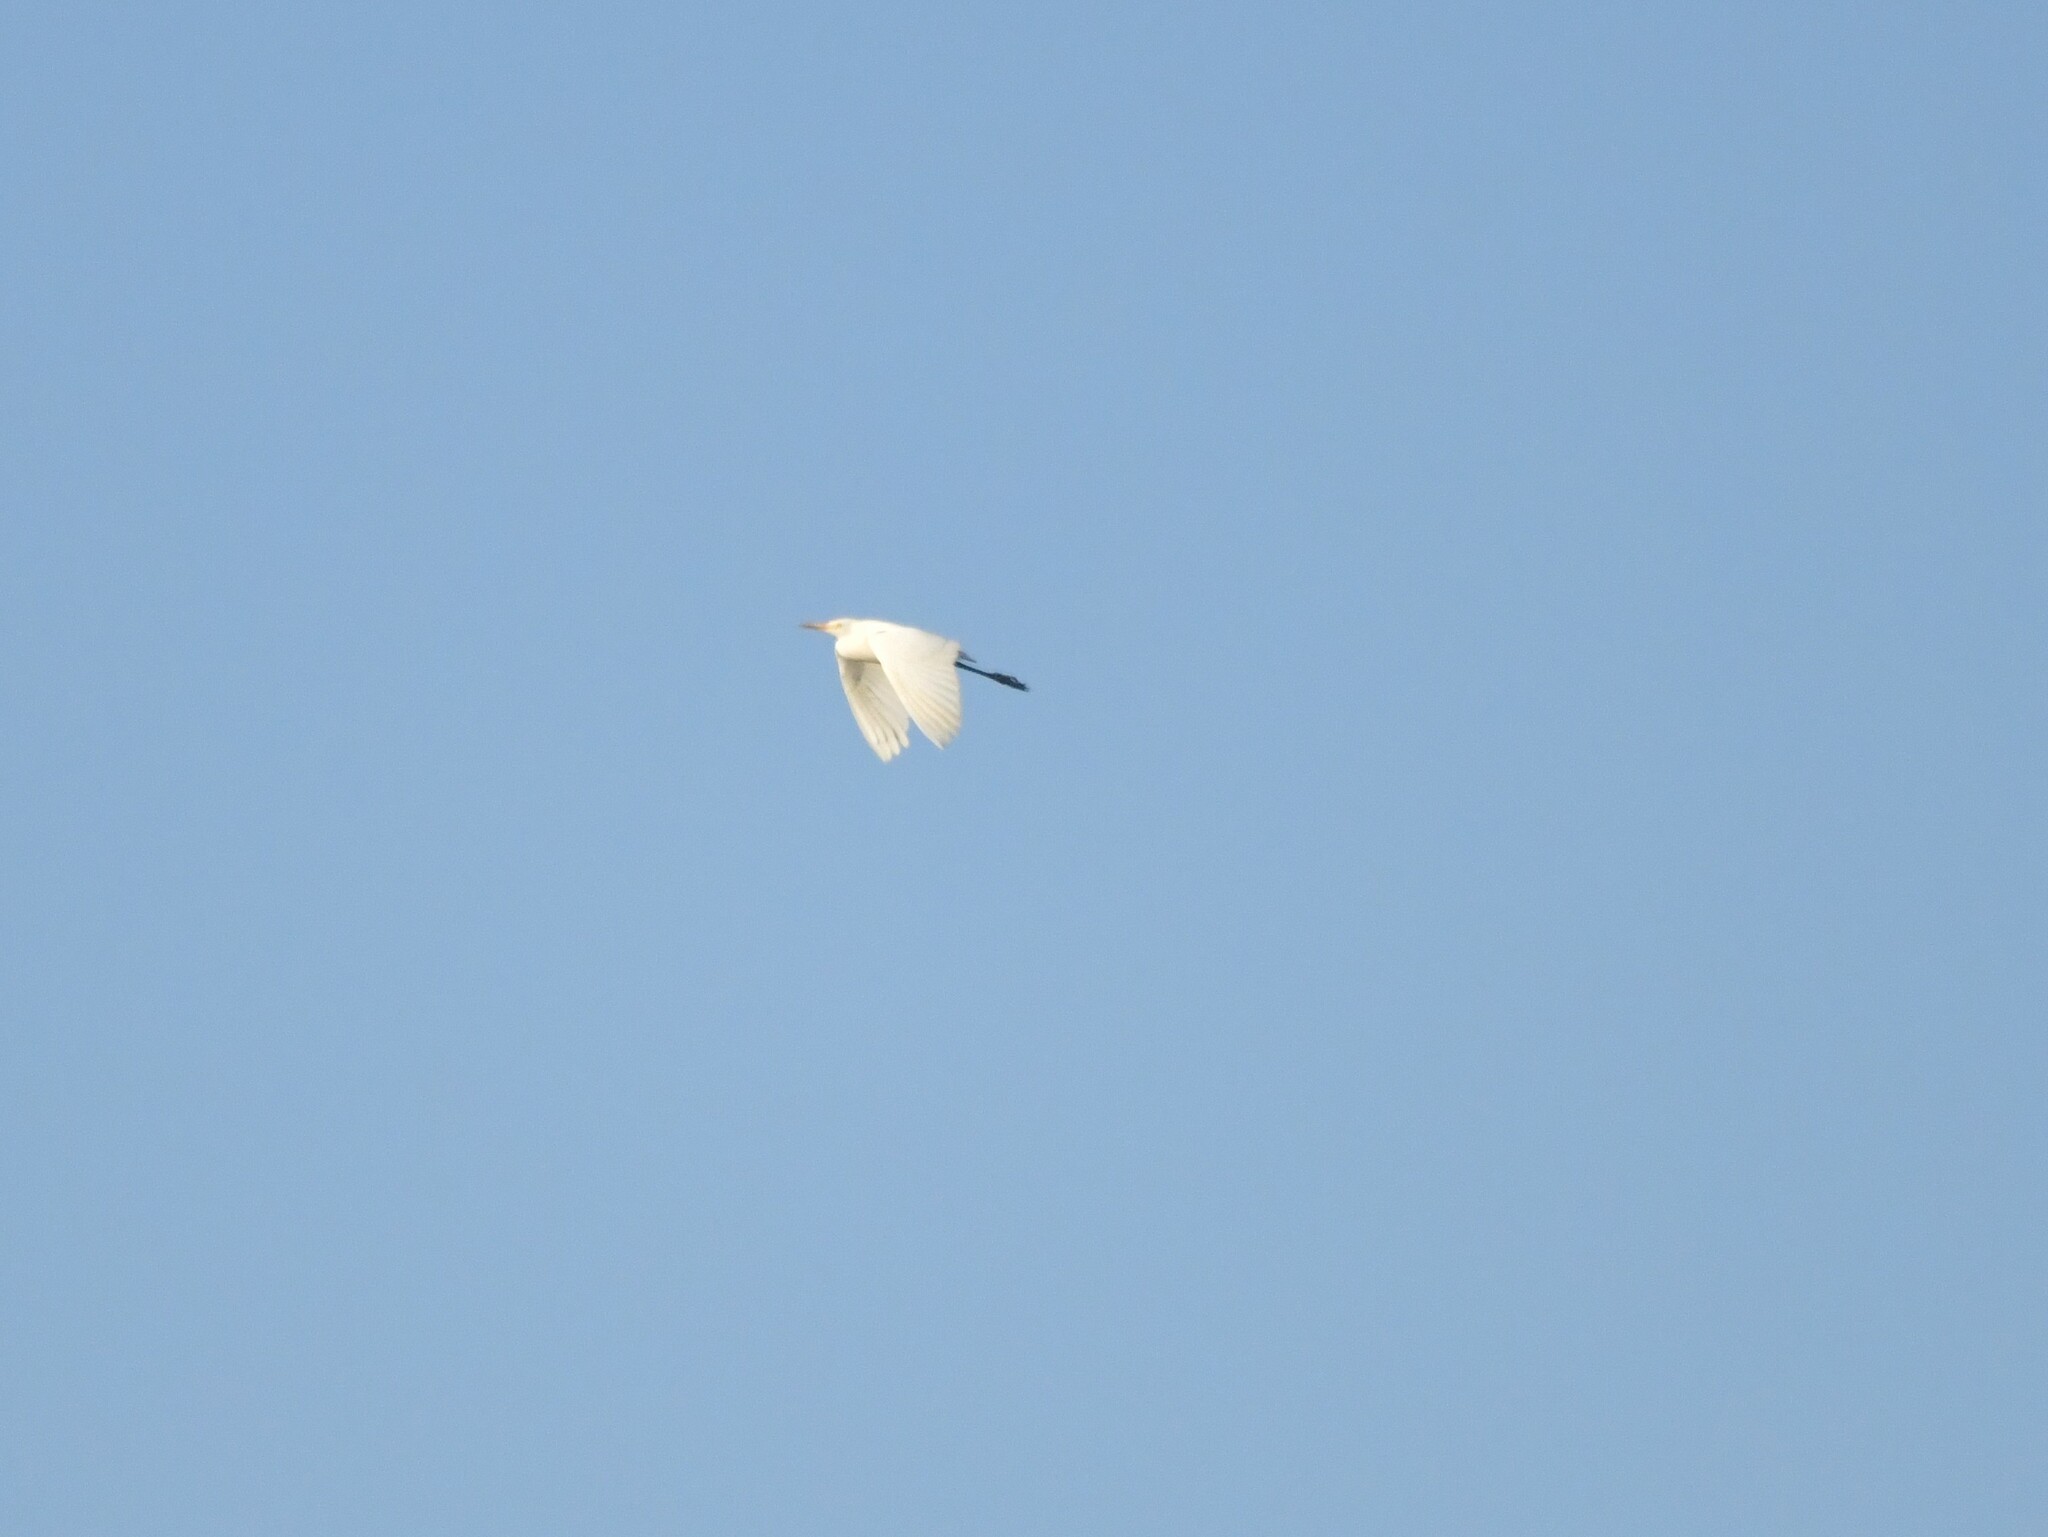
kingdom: Animalia
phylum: Chordata
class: Aves
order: Pelecaniformes
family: Ardeidae
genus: Bubulcus
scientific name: Bubulcus coromandus
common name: Eastern cattle egret
